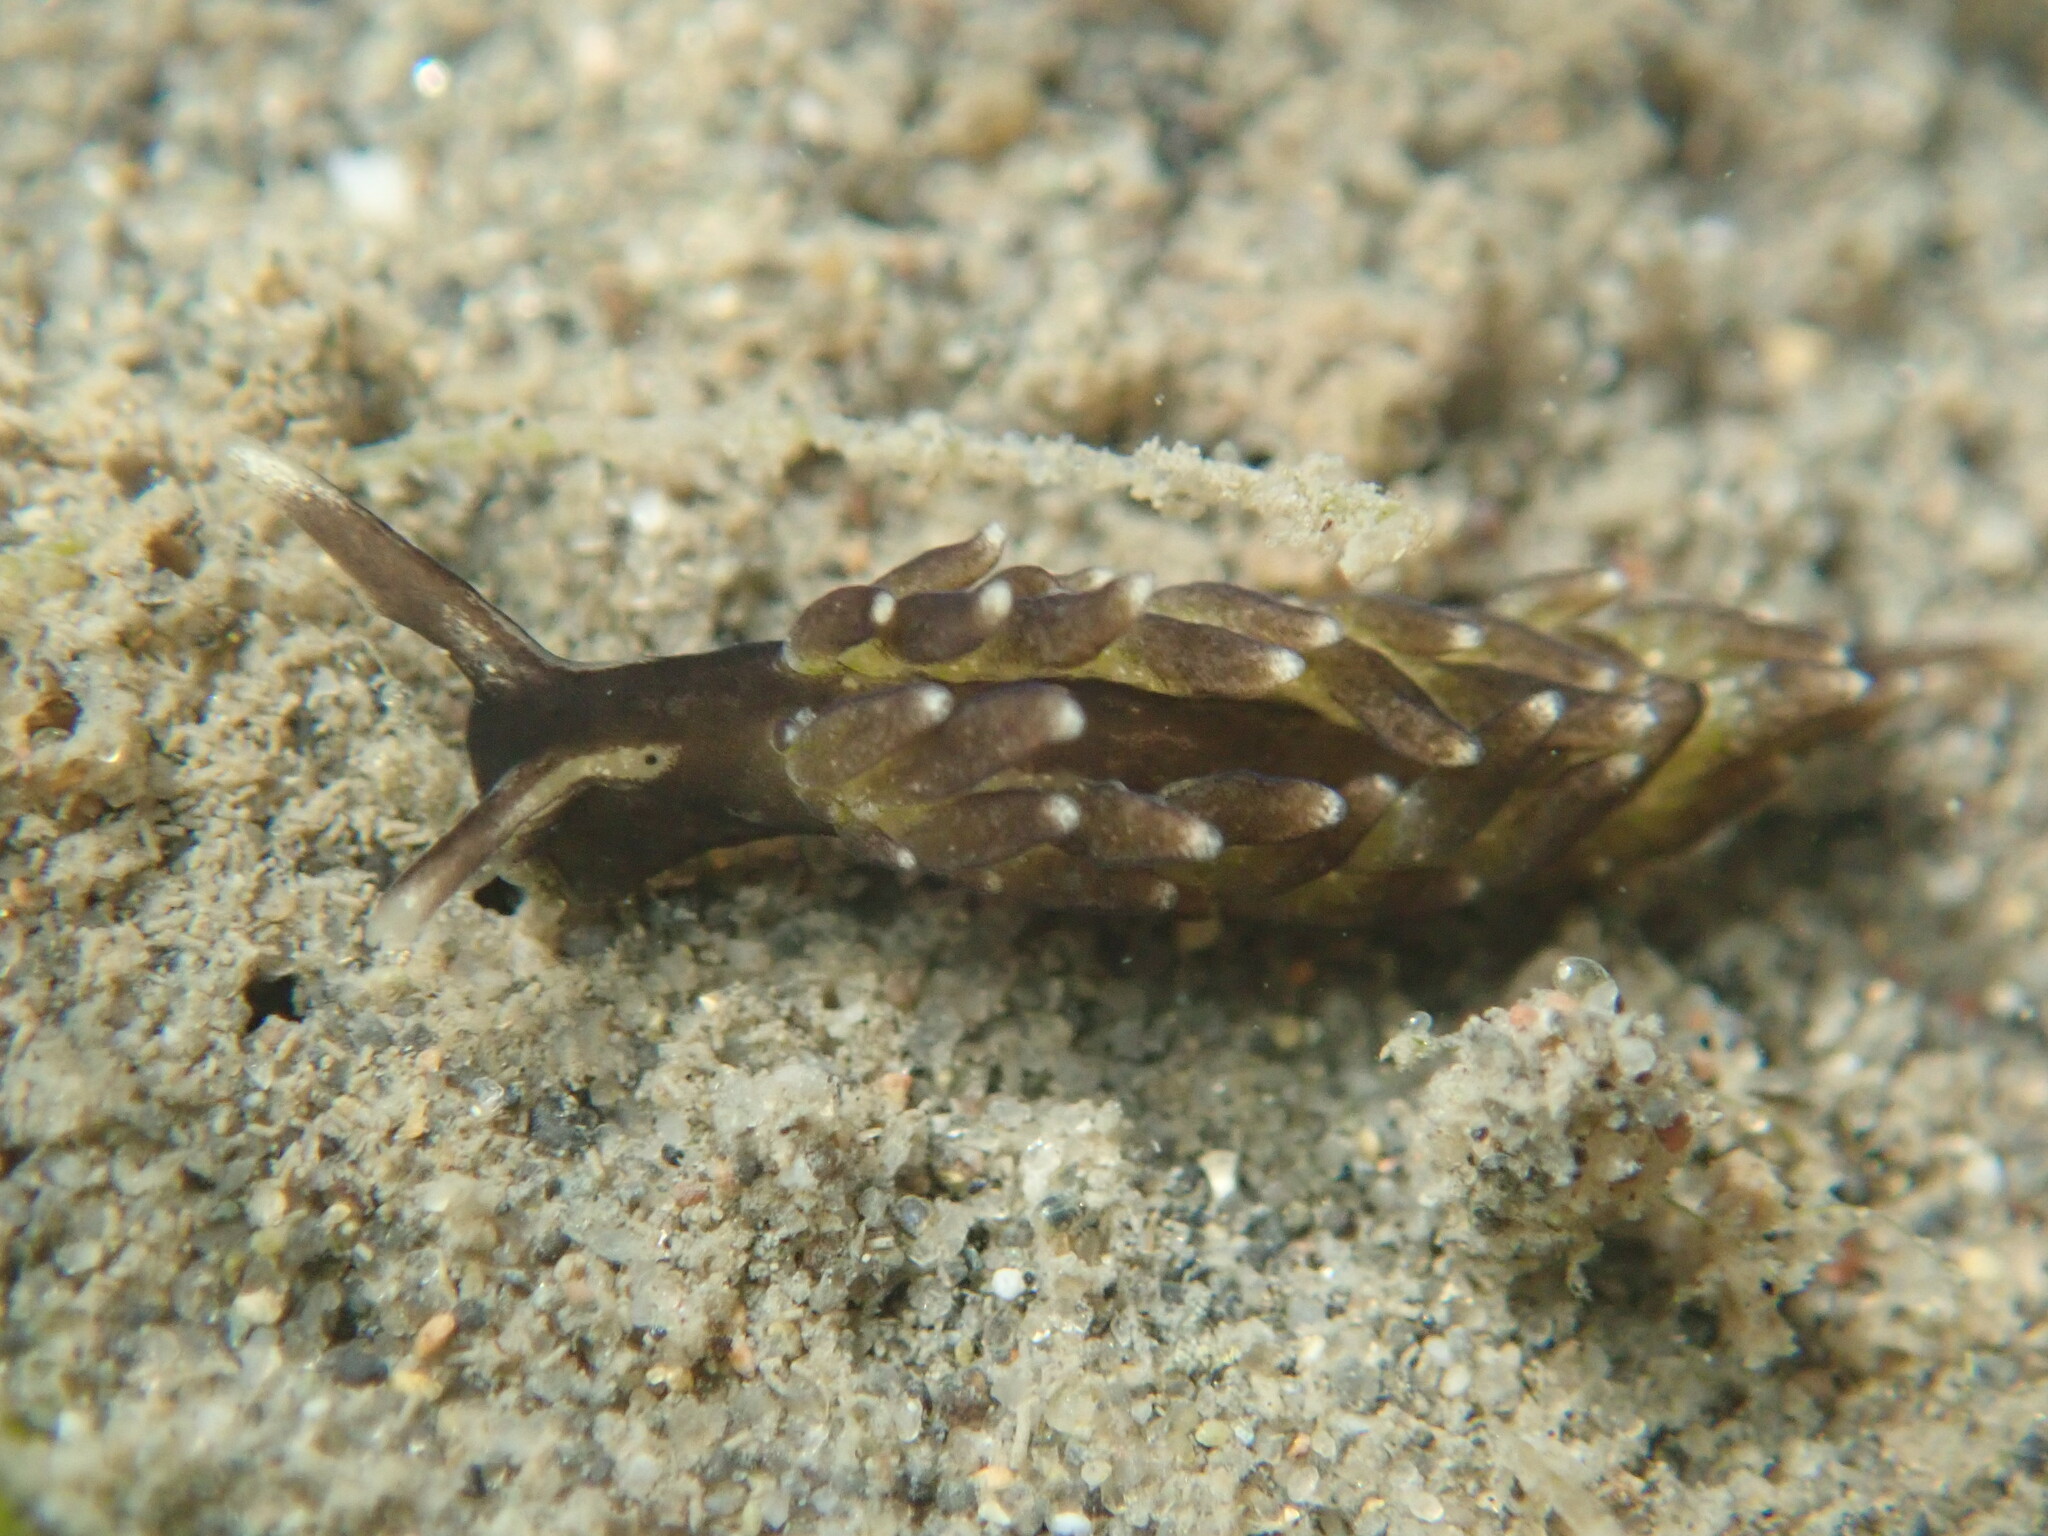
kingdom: Animalia
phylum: Mollusca
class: Gastropoda
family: Hermaeidae
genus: Aplysiopsis
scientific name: Aplysiopsis enteromorphae
